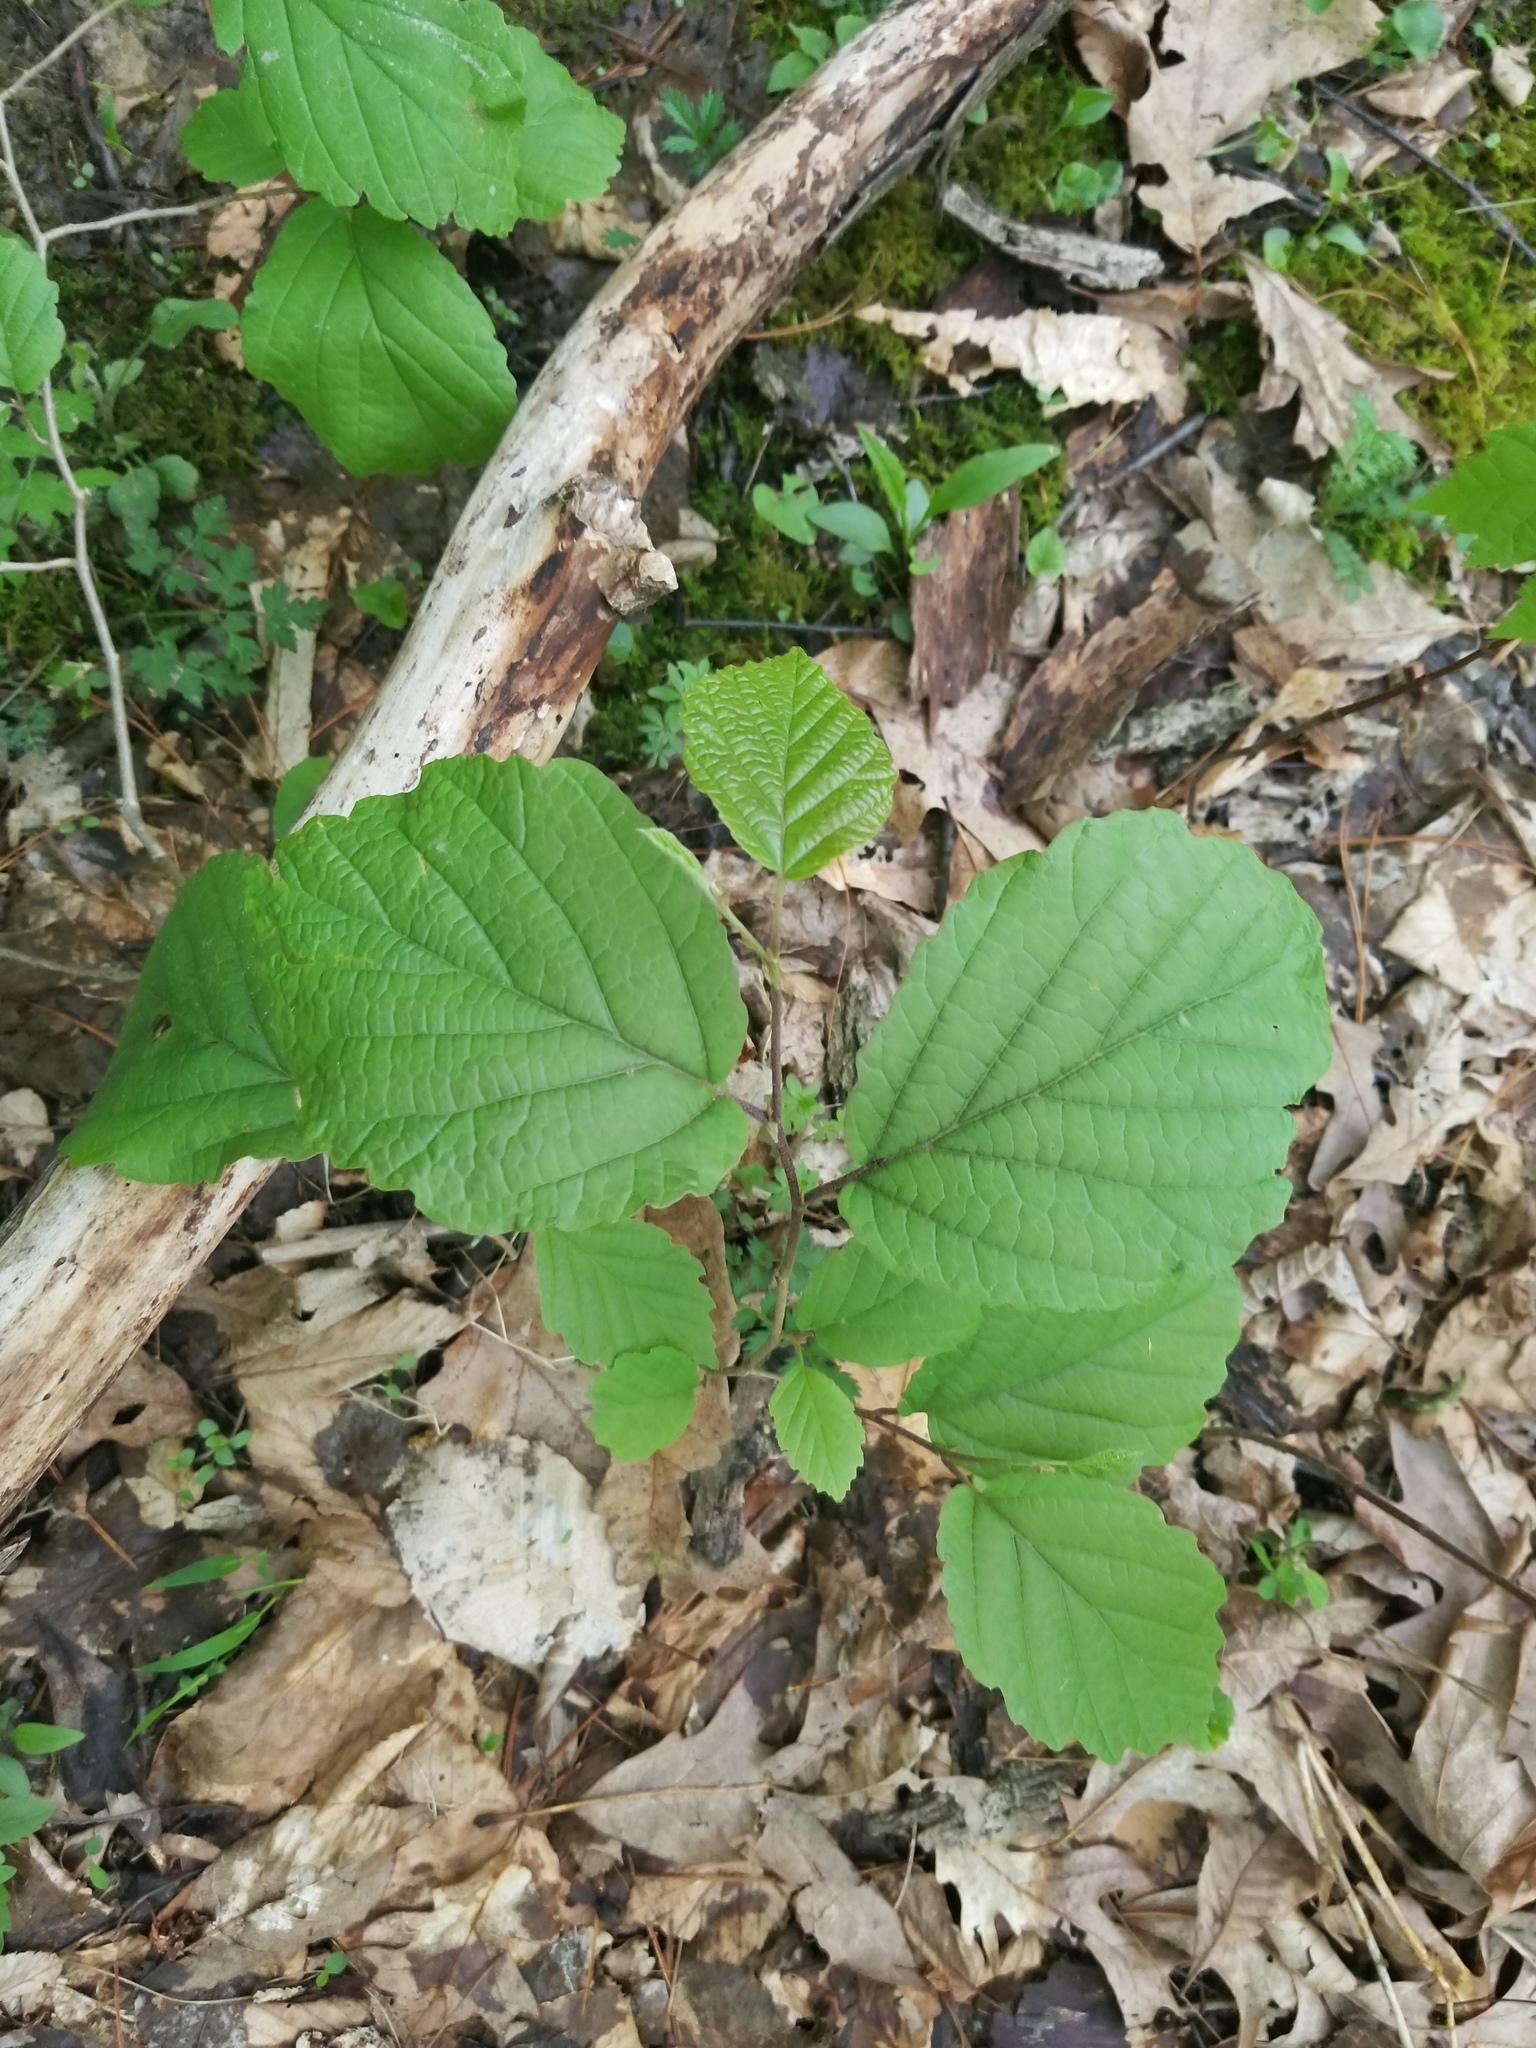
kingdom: Plantae
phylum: Tracheophyta
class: Magnoliopsida
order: Saxifragales
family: Hamamelidaceae
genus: Hamamelis
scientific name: Hamamelis virginiana
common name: Witch-hazel
